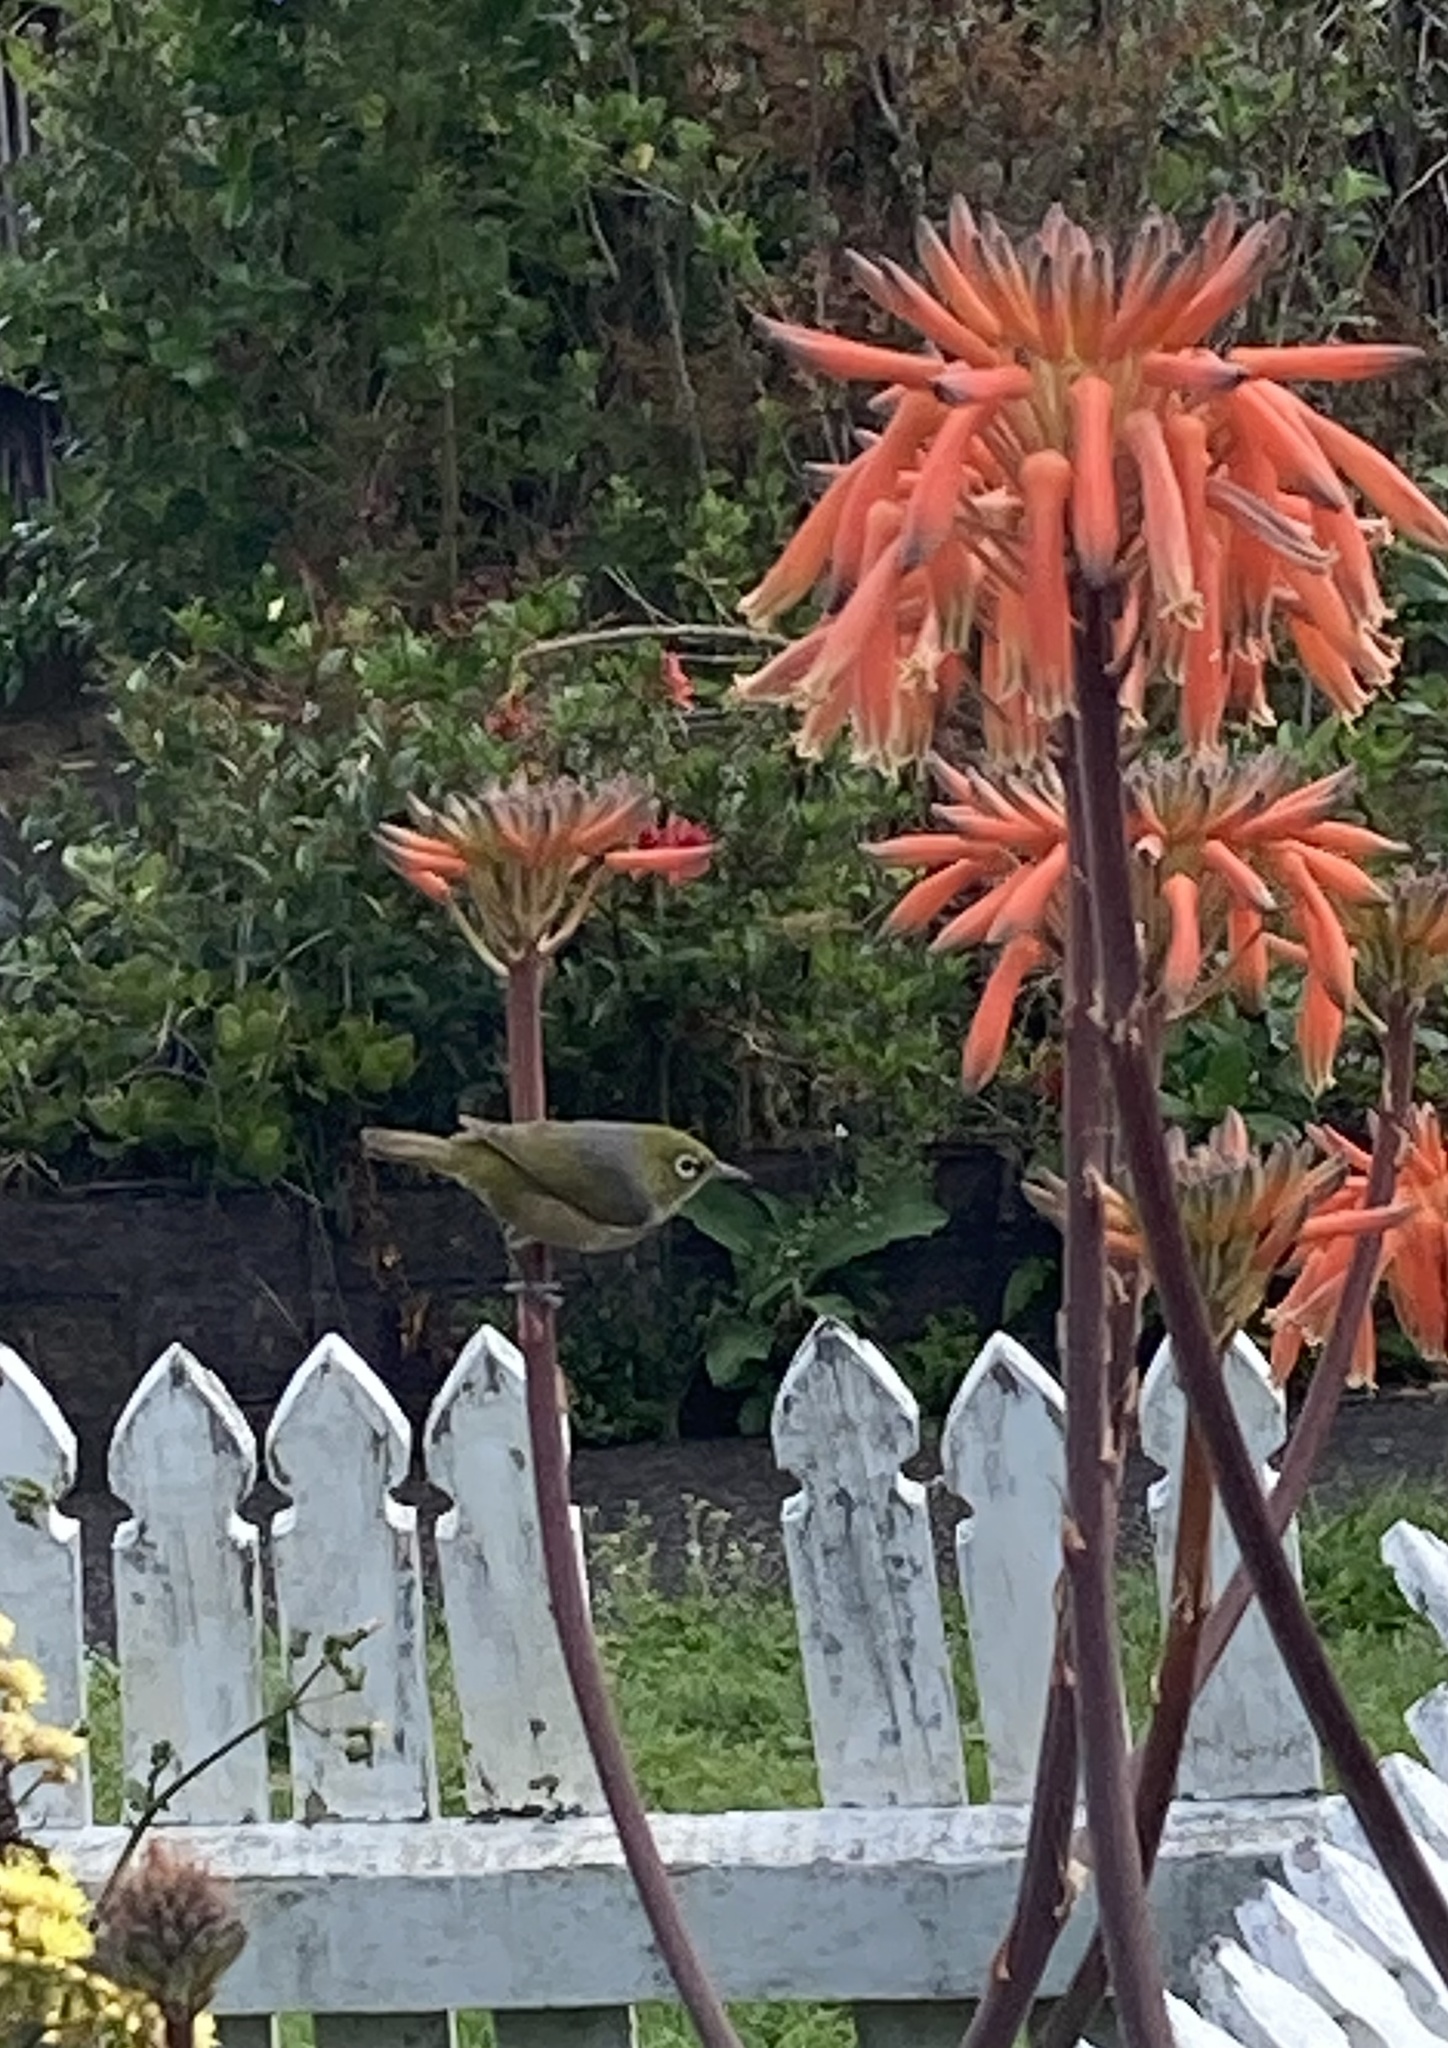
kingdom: Animalia
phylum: Chordata
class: Aves
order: Passeriformes
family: Zosteropidae
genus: Zosterops
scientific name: Zosterops lateralis
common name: Silvereye
